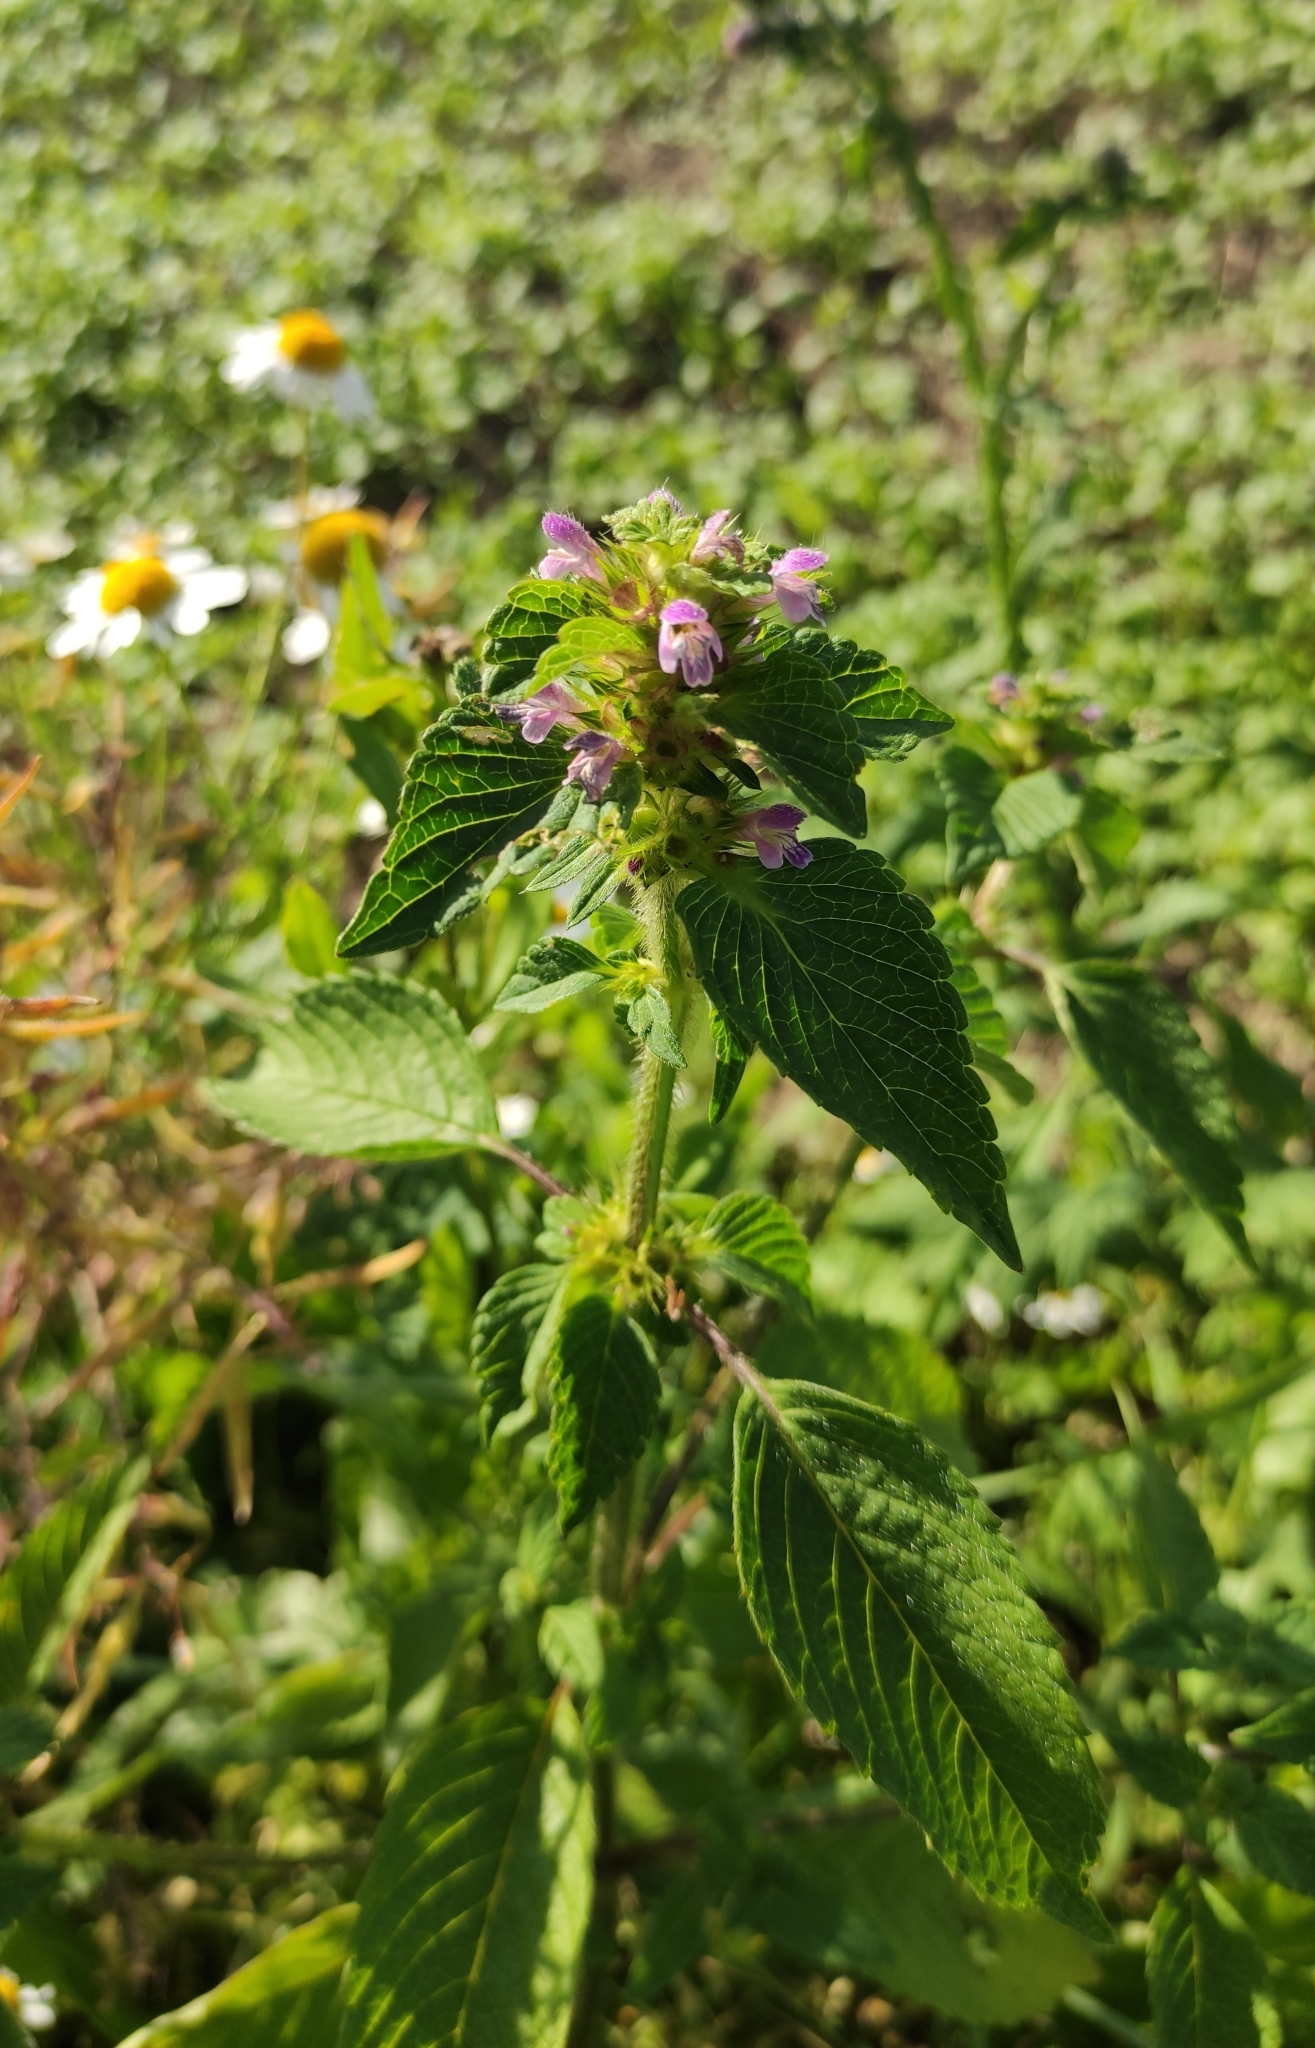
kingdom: Plantae
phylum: Tracheophyta
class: Magnoliopsida
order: Lamiales
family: Lamiaceae
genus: Galeopsis
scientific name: Galeopsis bifida
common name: Bifid hemp-nettle
